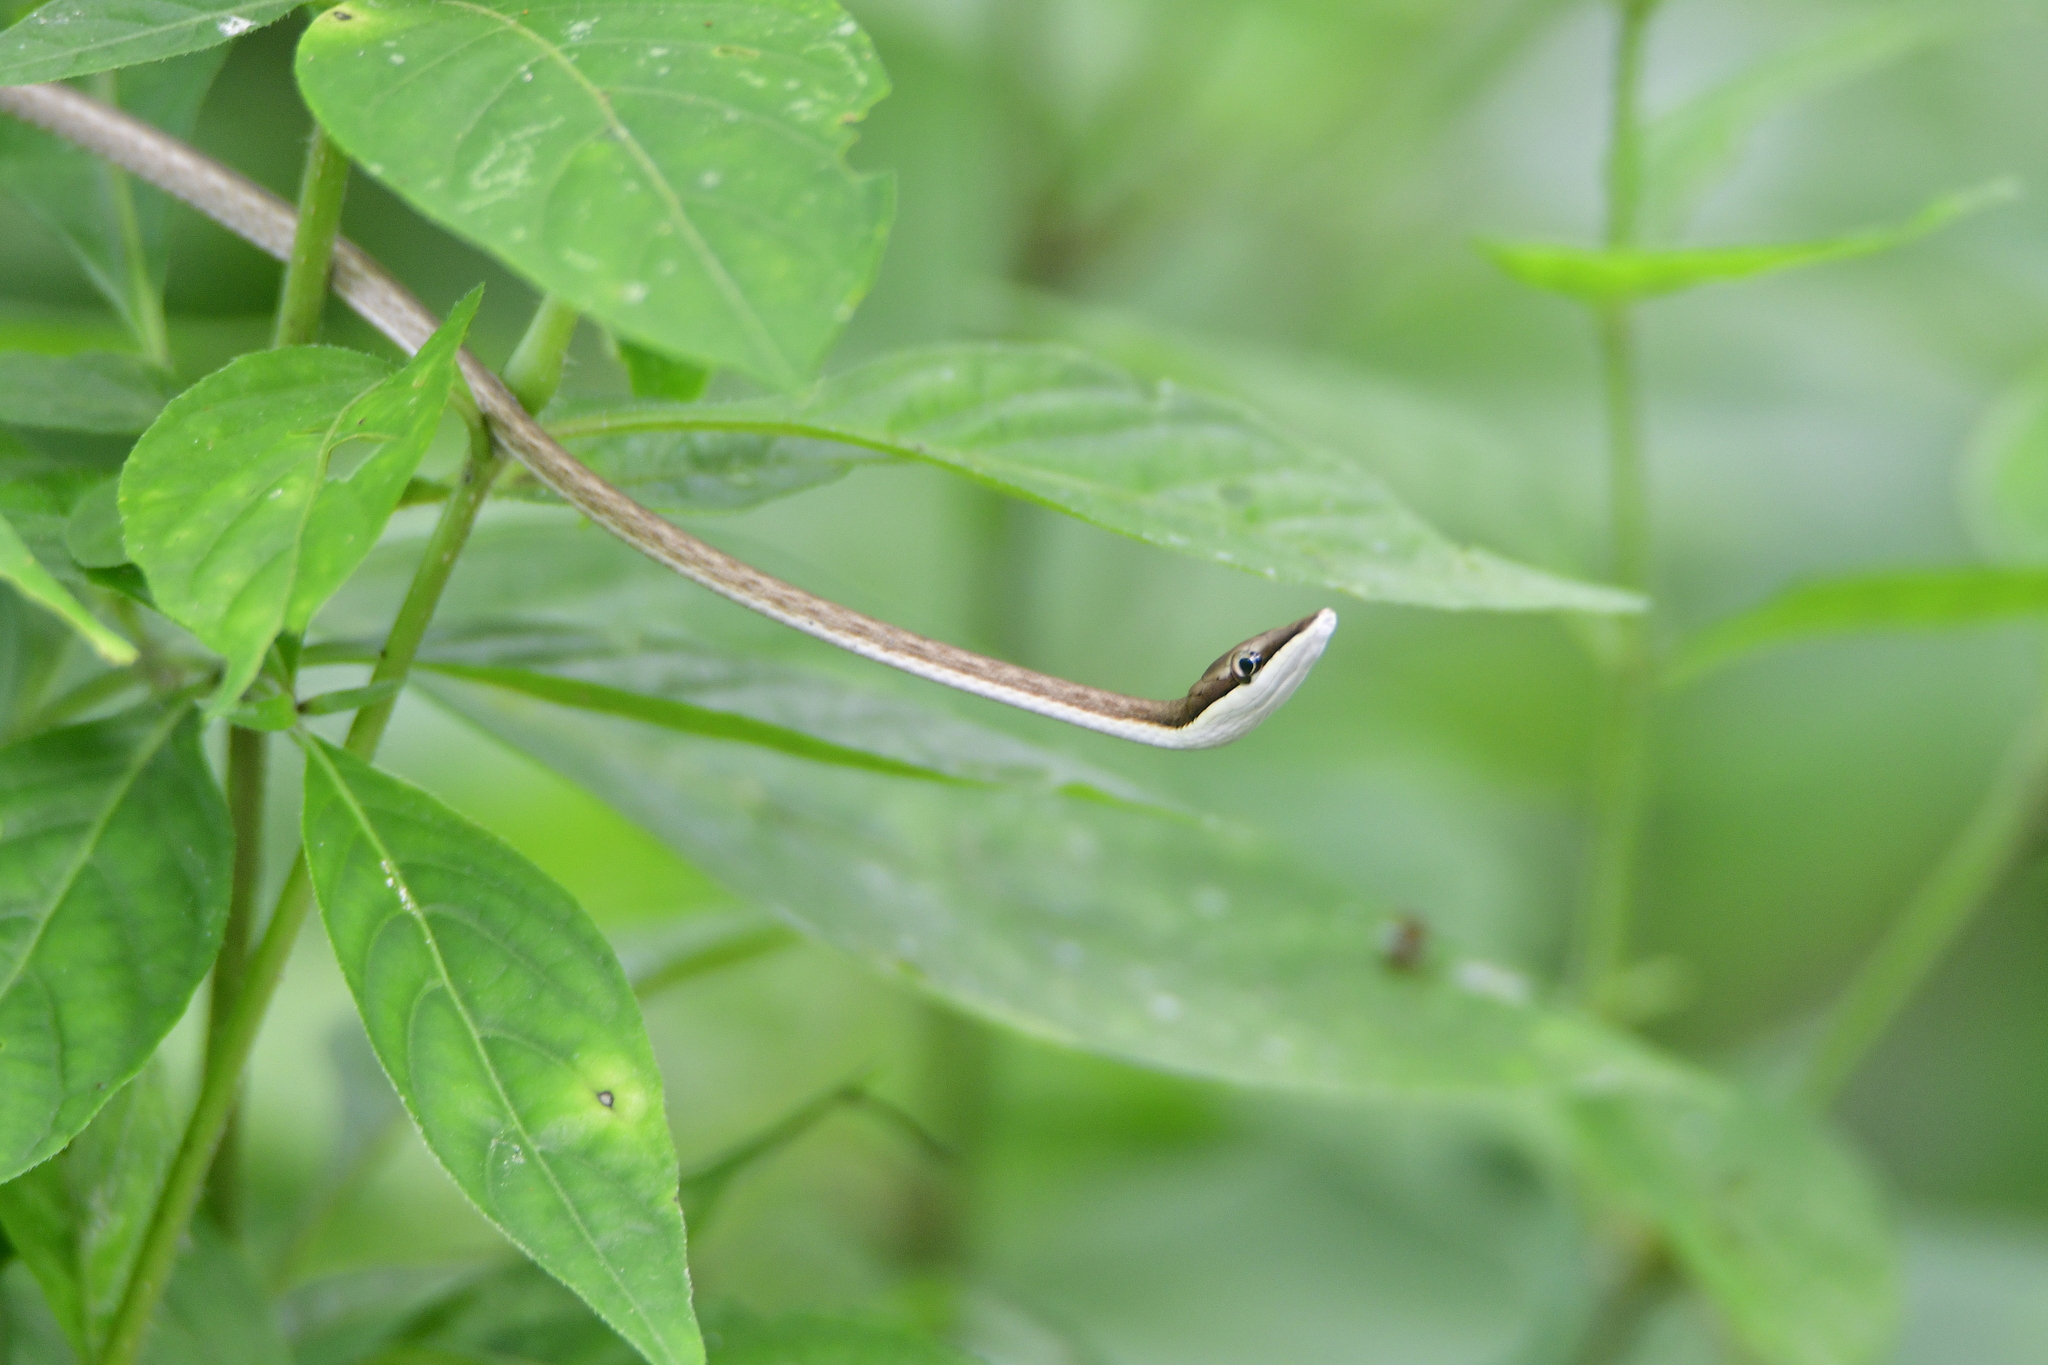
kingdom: Animalia
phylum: Chordata
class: Squamata
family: Colubridae
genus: Oxybelis
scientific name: Oxybelis microphthalmus
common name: Thrornscrub vine snake
